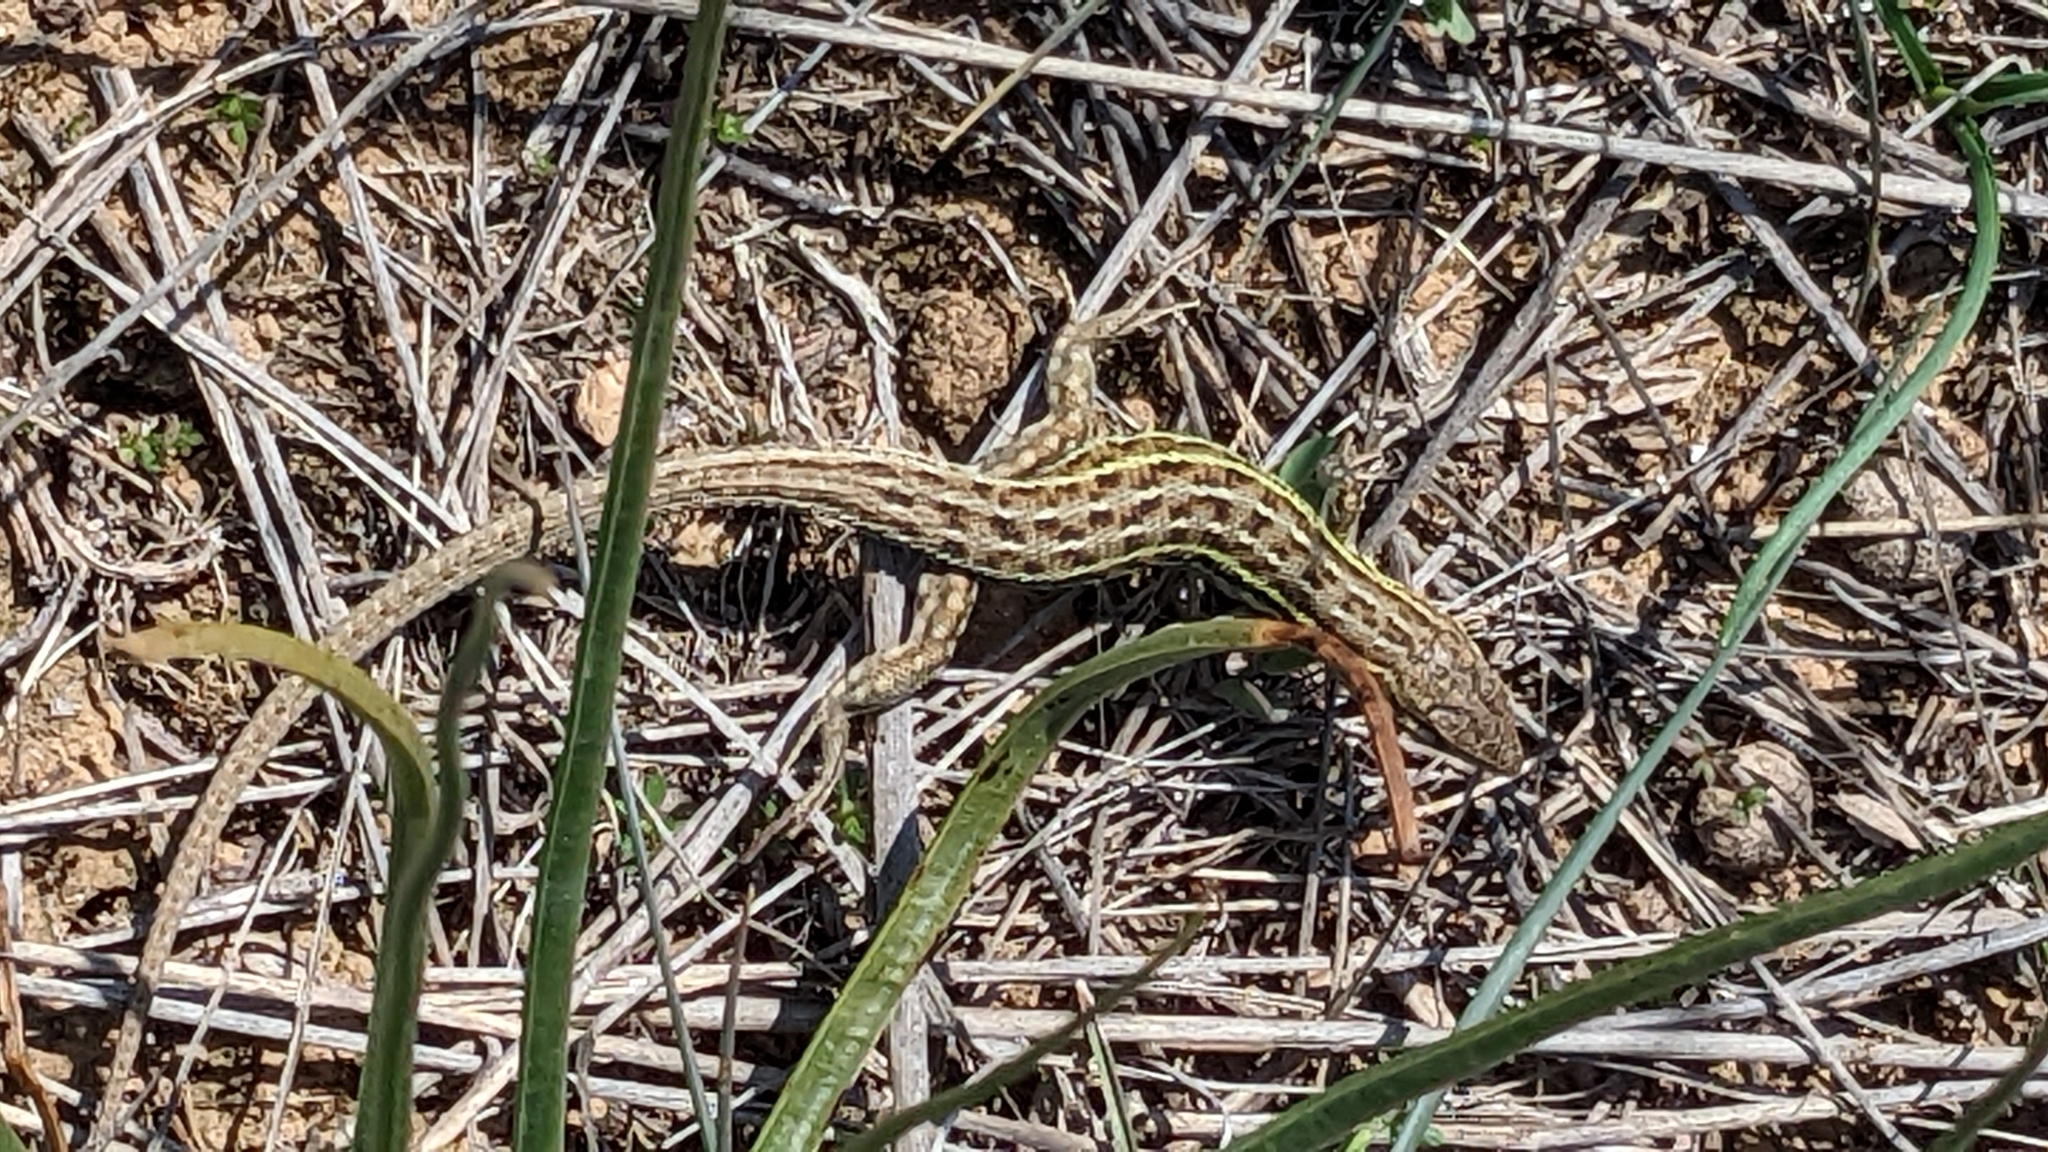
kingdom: Animalia
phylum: Chordata
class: Squamata
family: Lacertidae
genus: Psammodromus
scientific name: Psammodromus edwarsianus
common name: East iberian psammodromus
